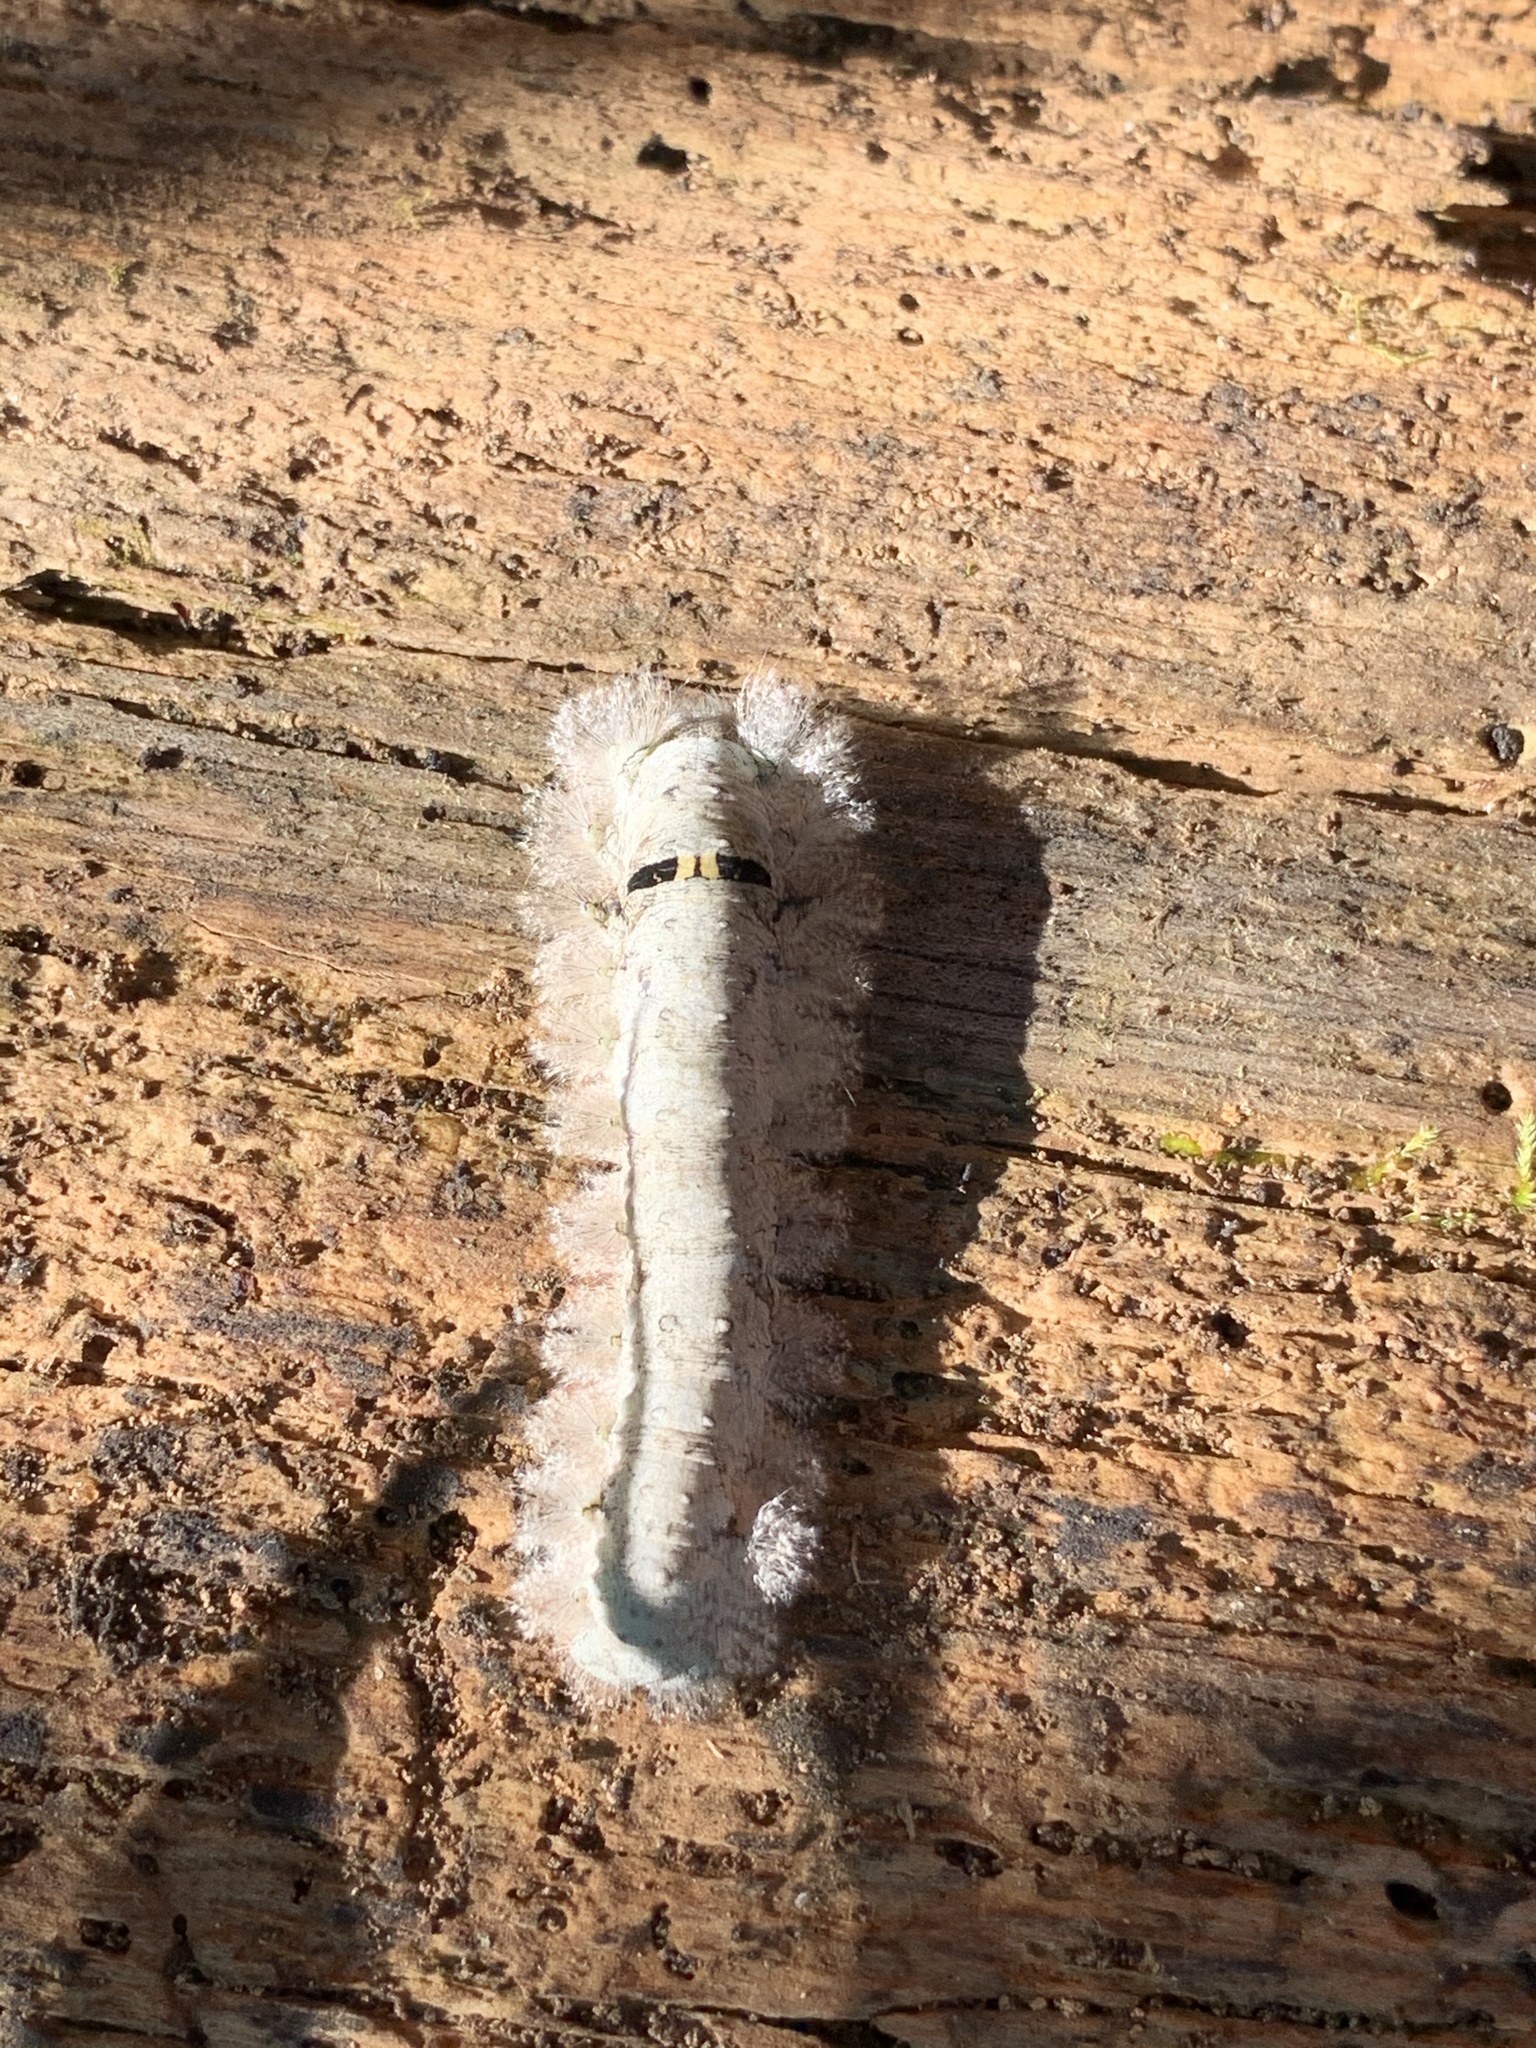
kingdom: Animalia
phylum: Arthropoda
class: Insecta
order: Lepidoptera
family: Lasiocampidae
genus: Artace
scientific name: Artace cribrarius
